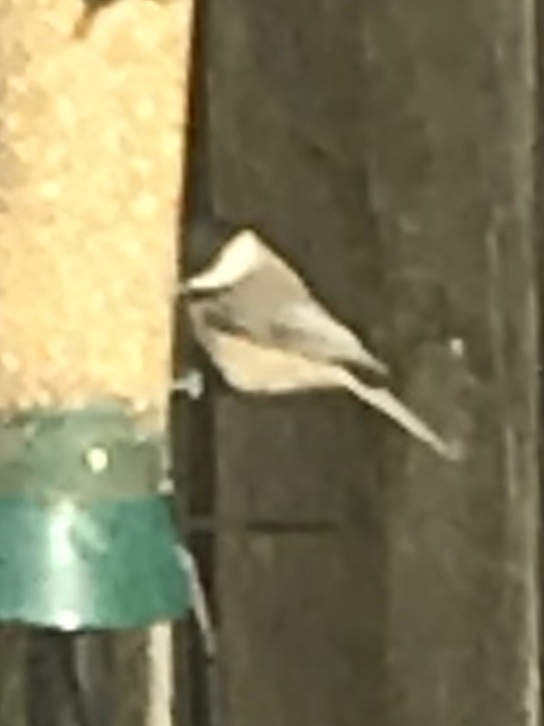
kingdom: Animalia
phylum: Chordata
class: Aves
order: Passeriformes
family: Paridae
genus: Poecile
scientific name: Poecile carolinensis
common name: Carolina chickadee
